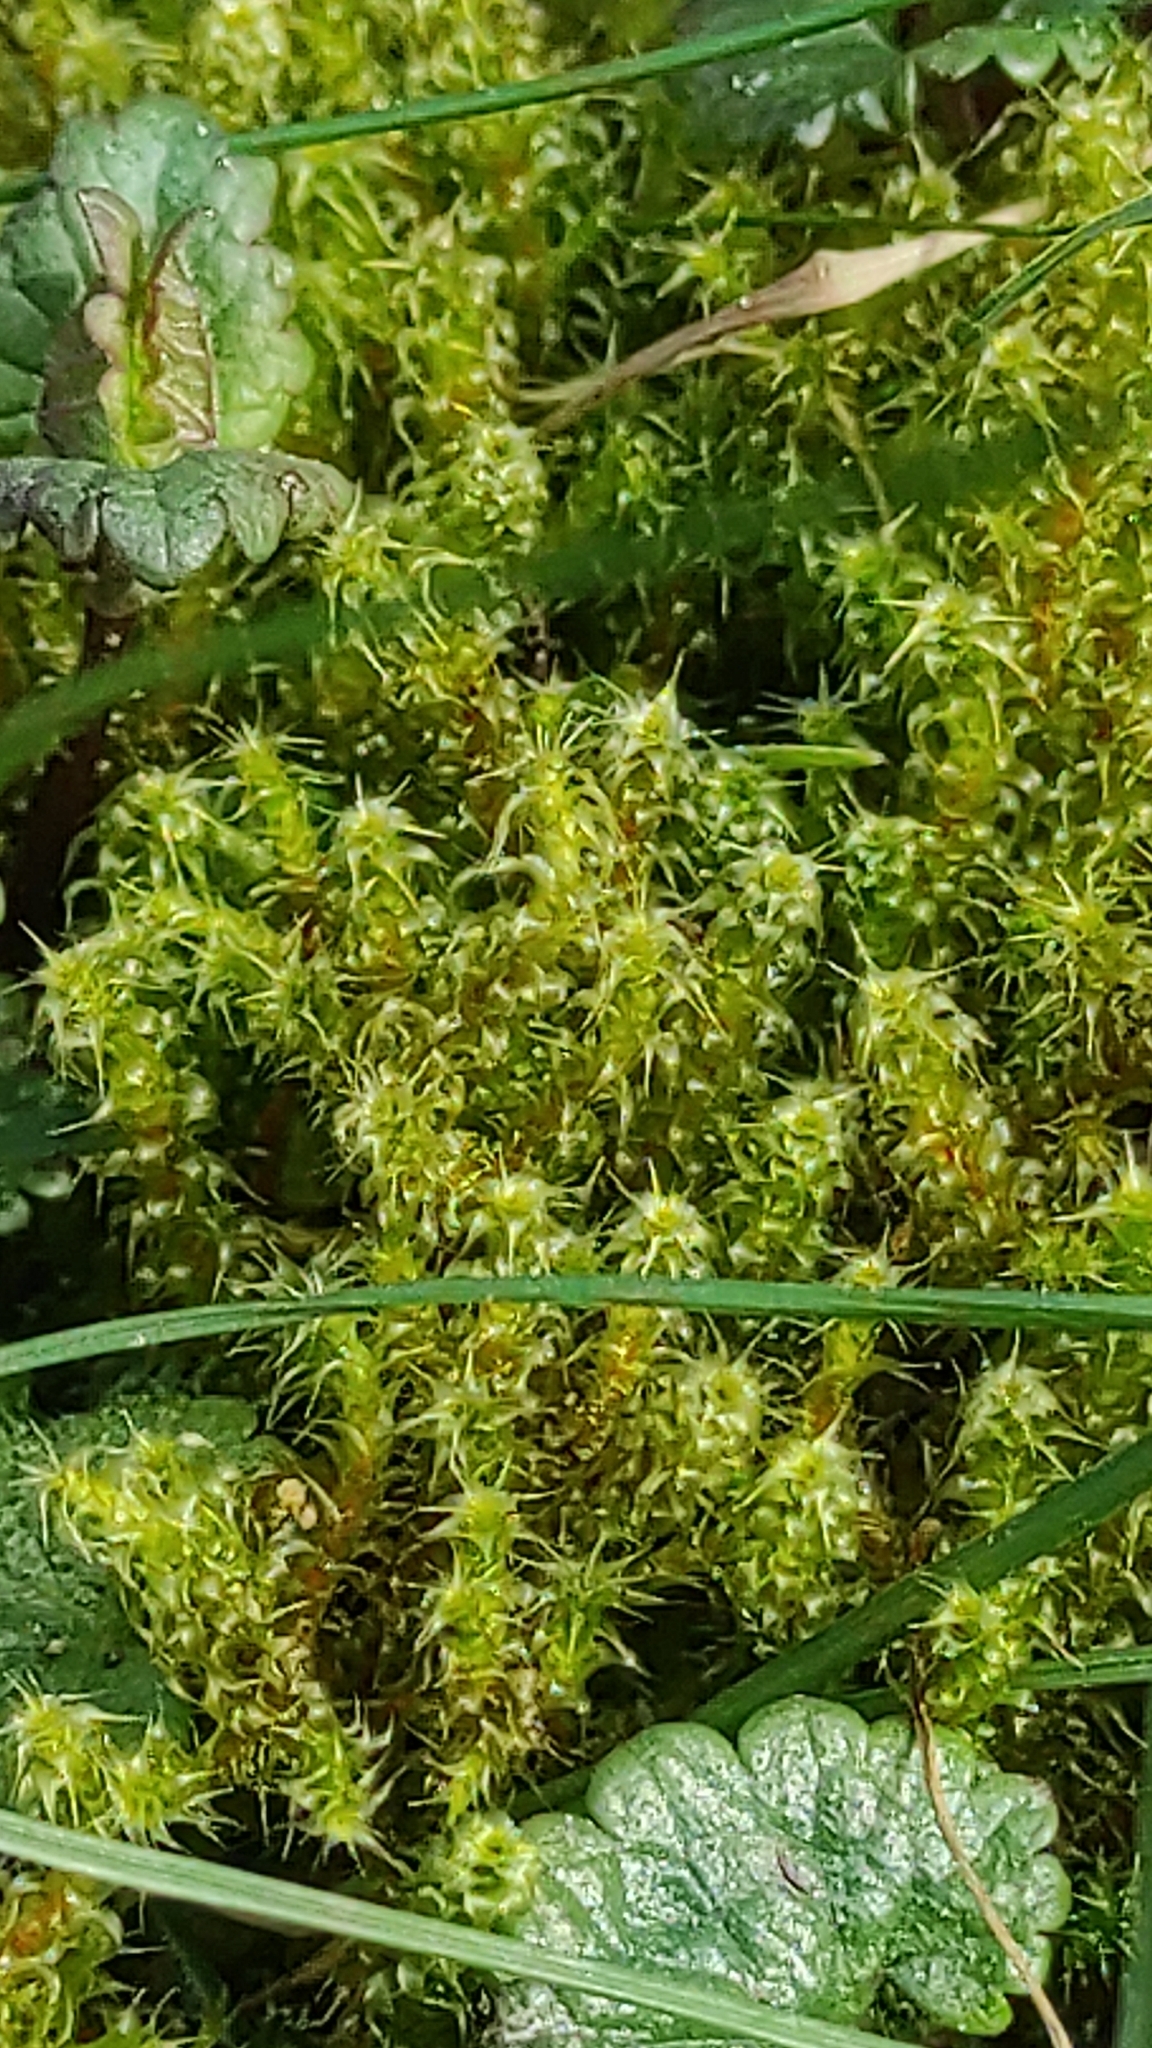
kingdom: Plantae
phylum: Bryophyta
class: Bryopsida
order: Hypnales
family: Hylocomiaceae
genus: Rhytidiadelphus
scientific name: Rhytidiadelphus squarrosus
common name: Springy turf-moss
